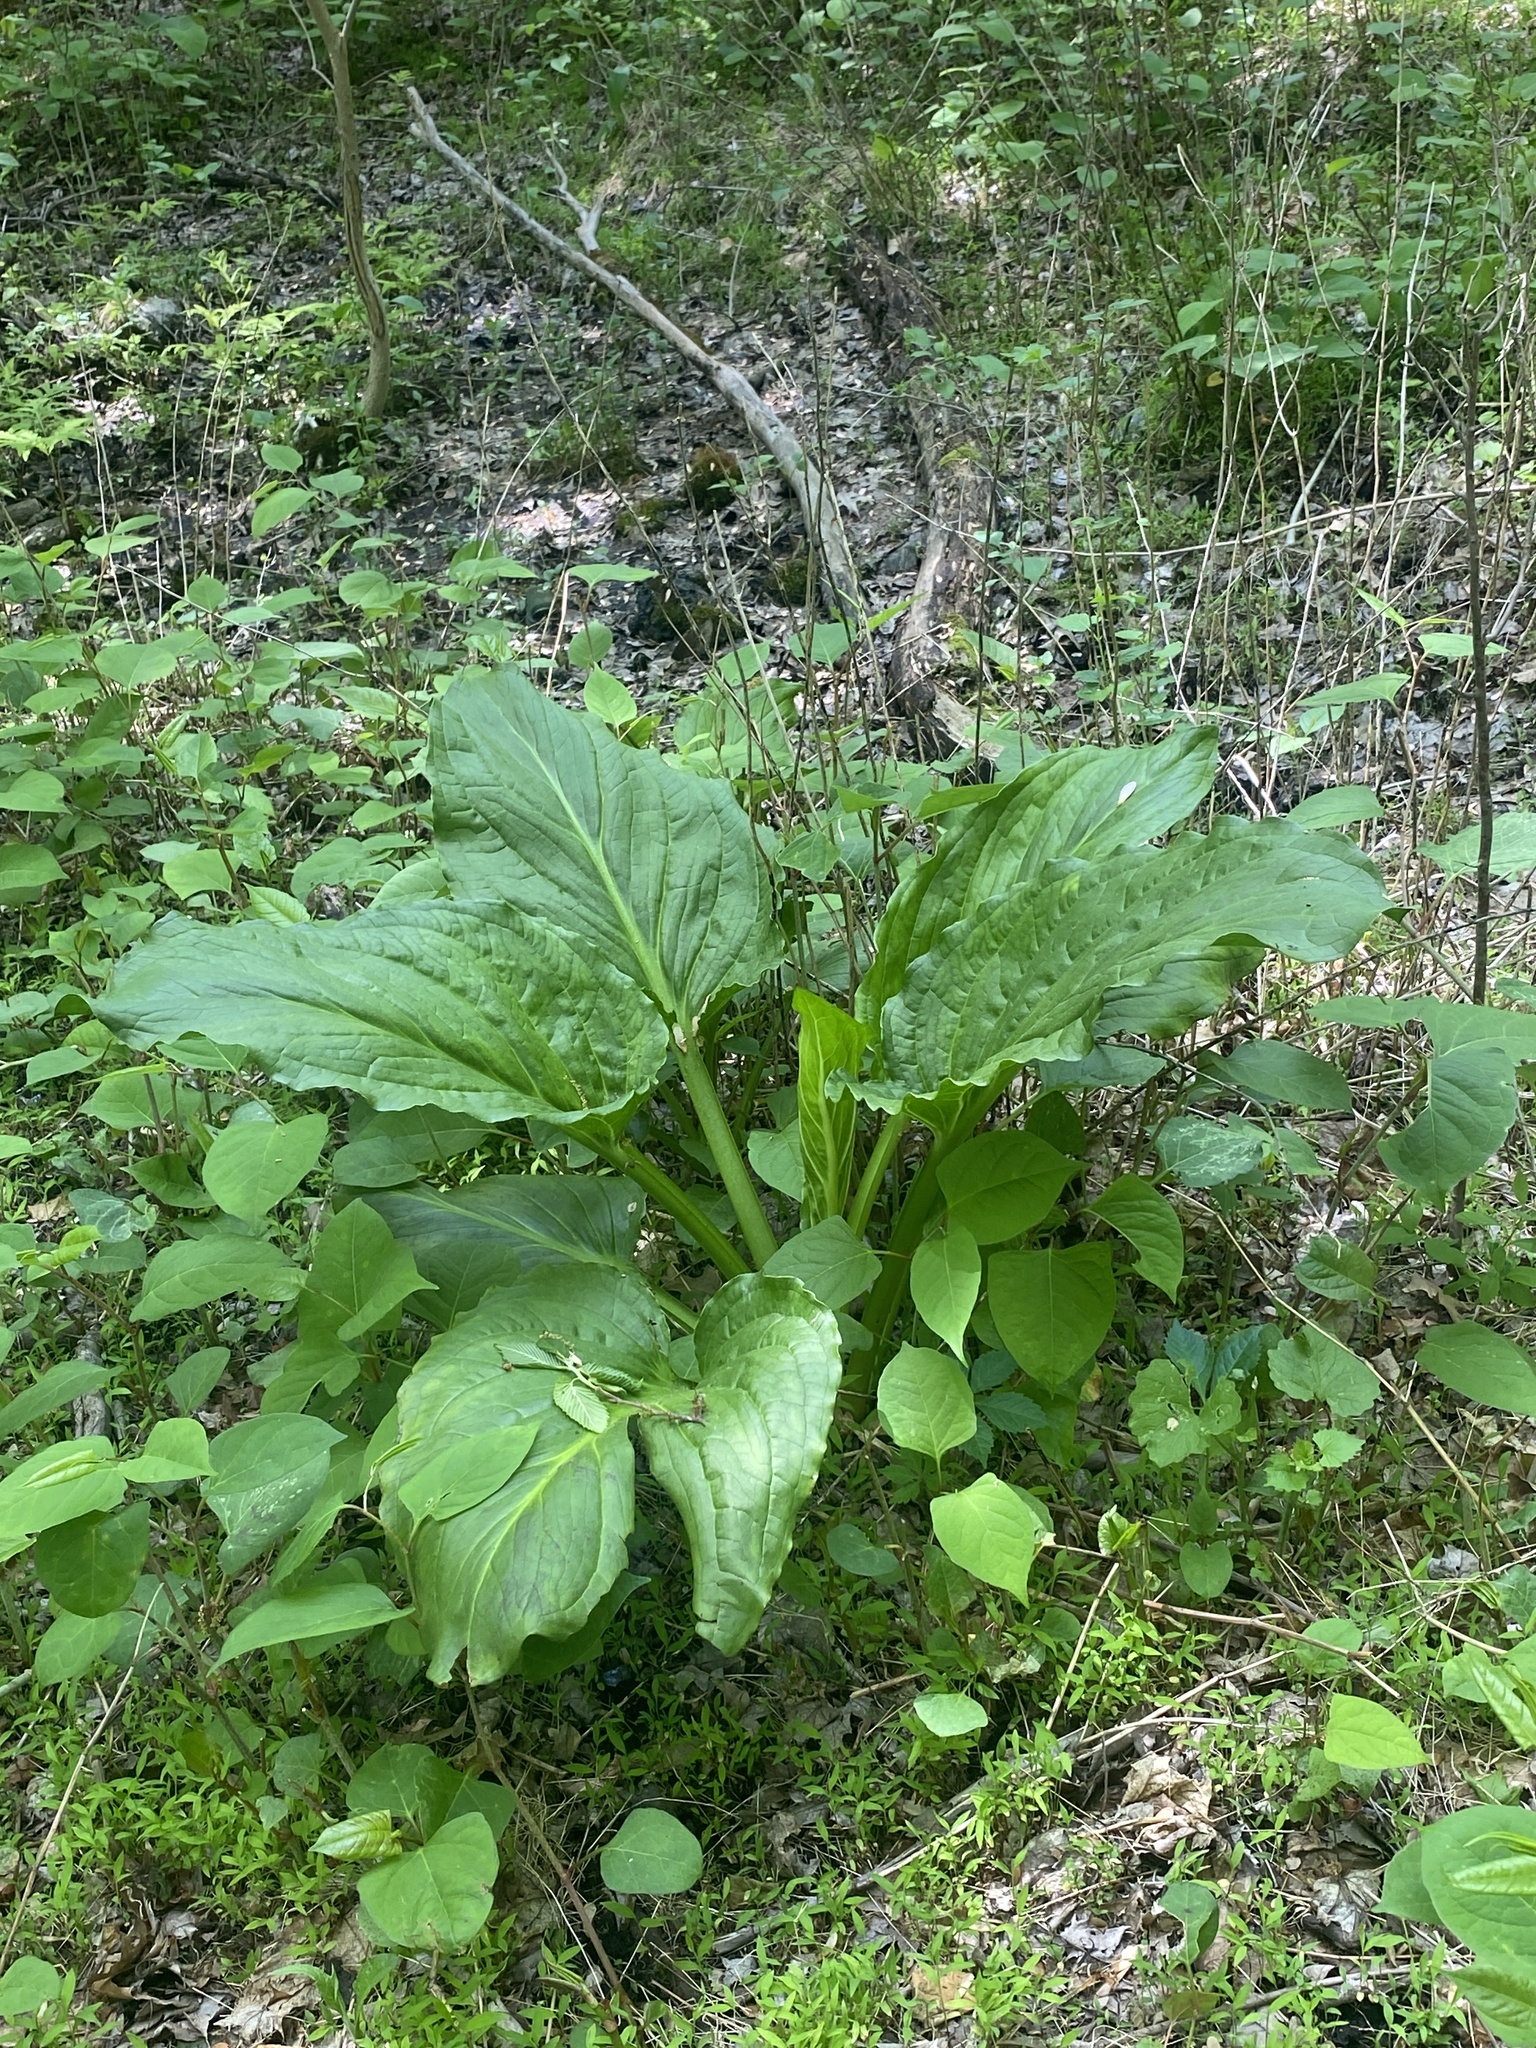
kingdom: Plantae
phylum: Tracheophyta
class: Liliopsida
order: Alismatales
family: Araceae
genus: Symplocarpus
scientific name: Symplocarpus foetidus
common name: Eastern skunk cabbage
